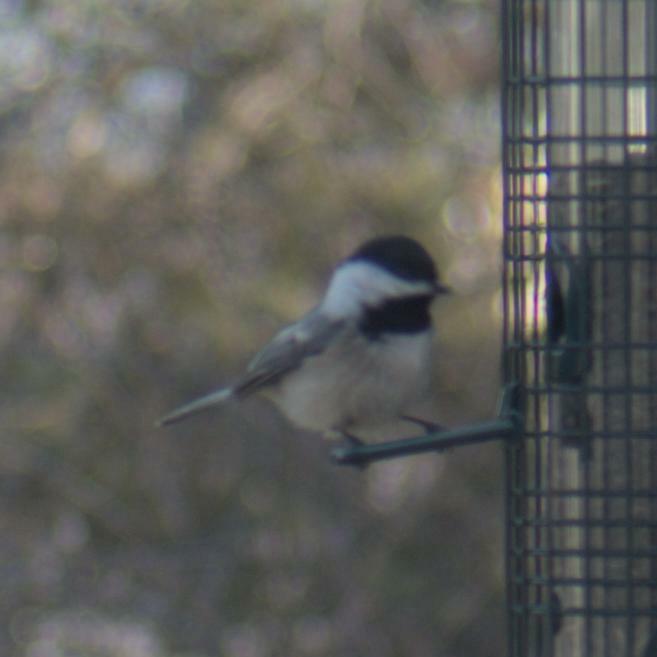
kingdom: Animalia
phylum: Chordata
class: Aves
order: Passeriformes
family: Paridae
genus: Poecile
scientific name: Poecile atricapillus
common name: Black-capped chickadee
